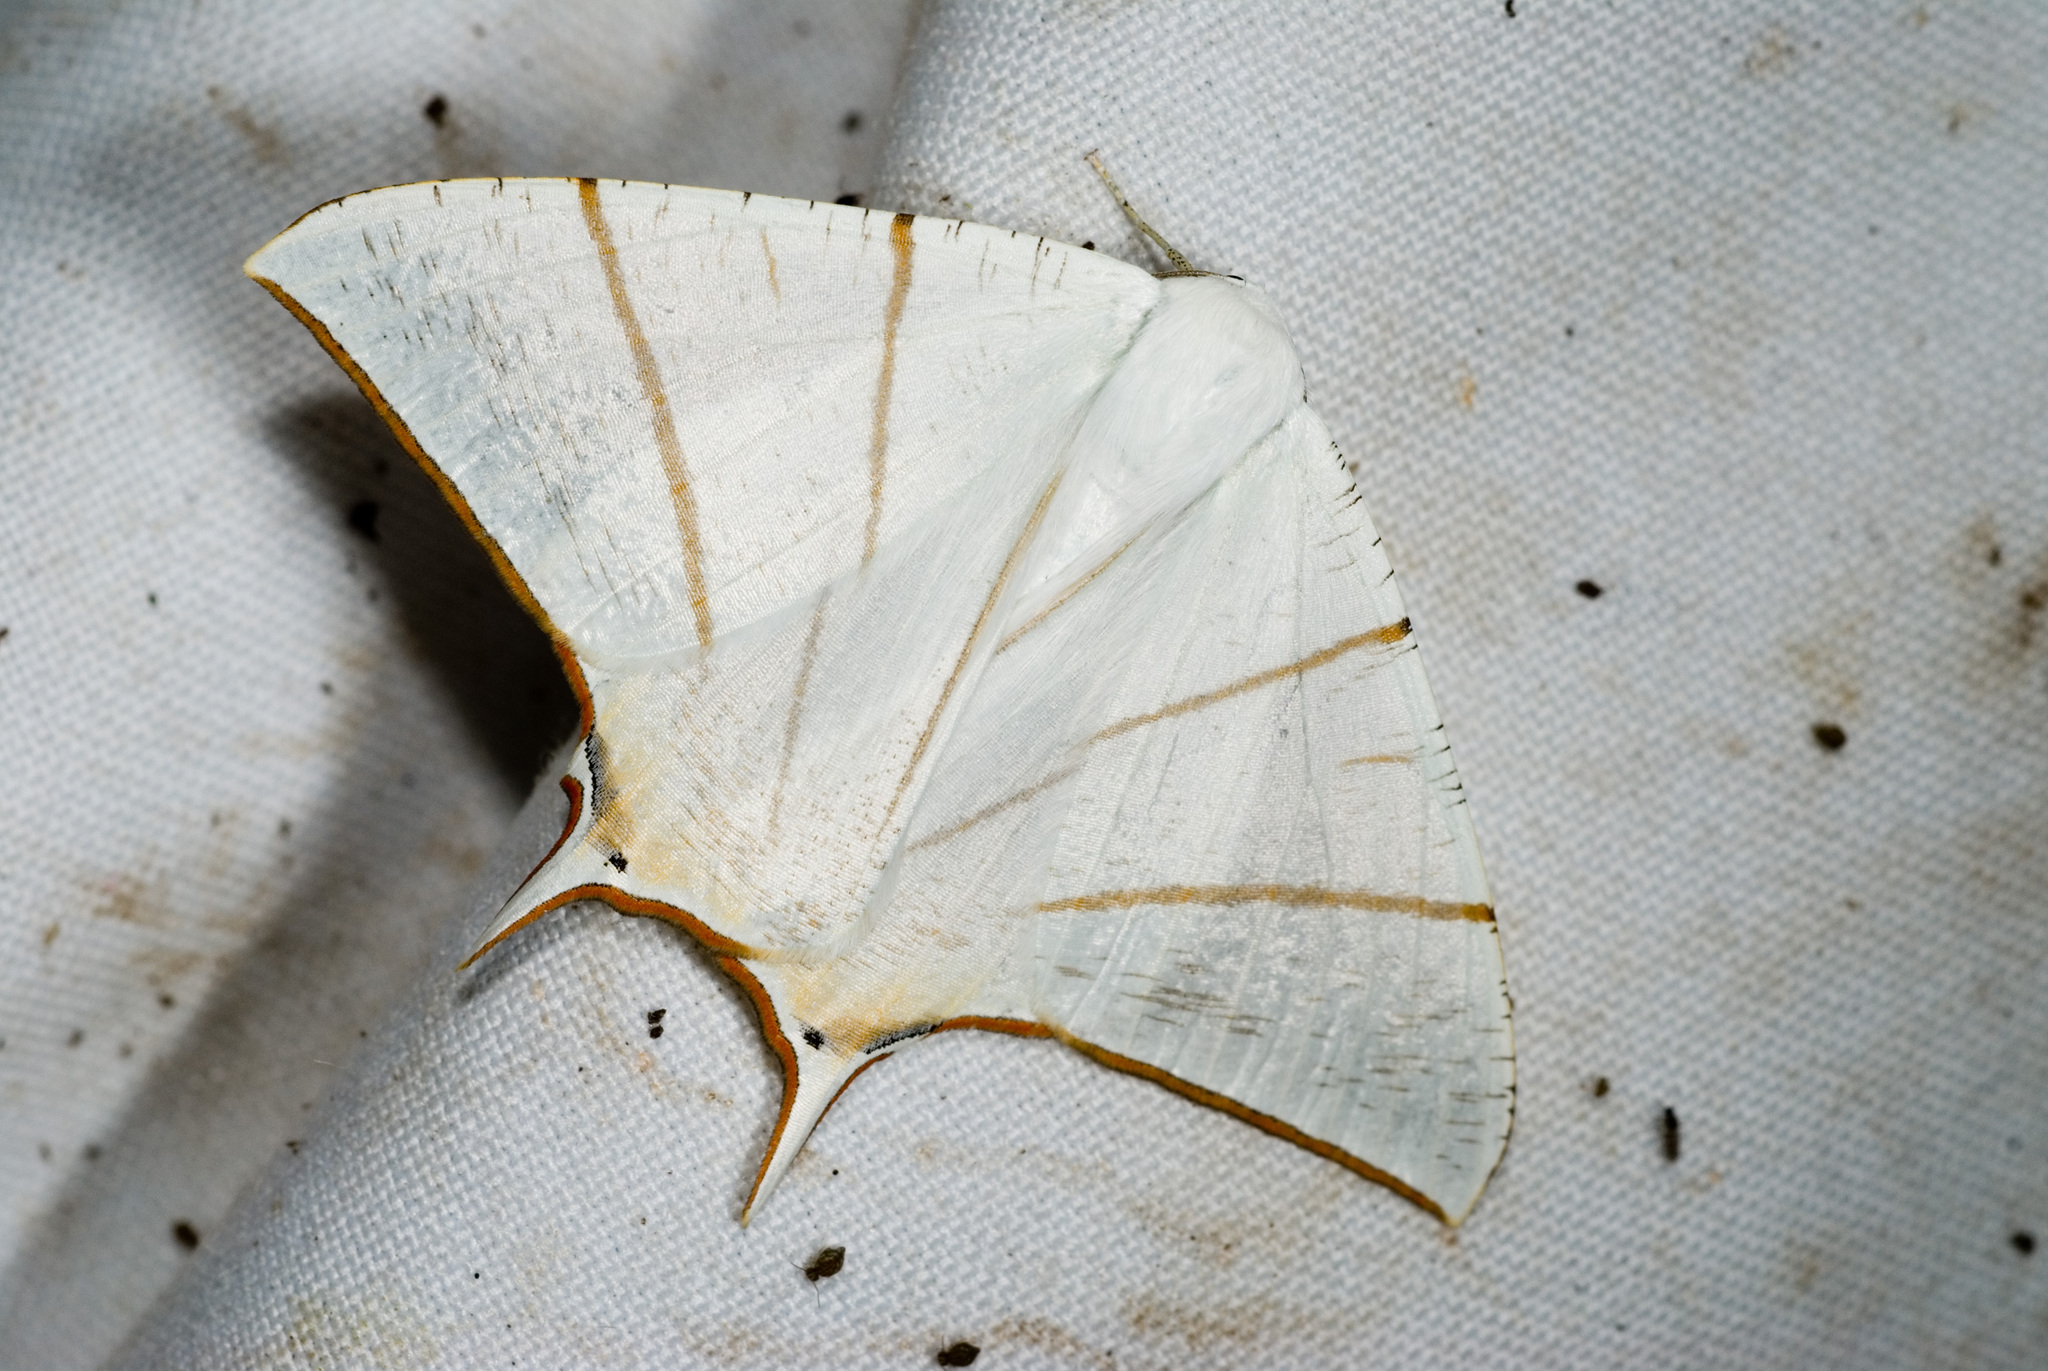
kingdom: Animalia
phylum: Arthropoda
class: Insecta
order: Lepidoptera
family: Geometridae
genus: Ourapteryx
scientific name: Ourapteryx clara
